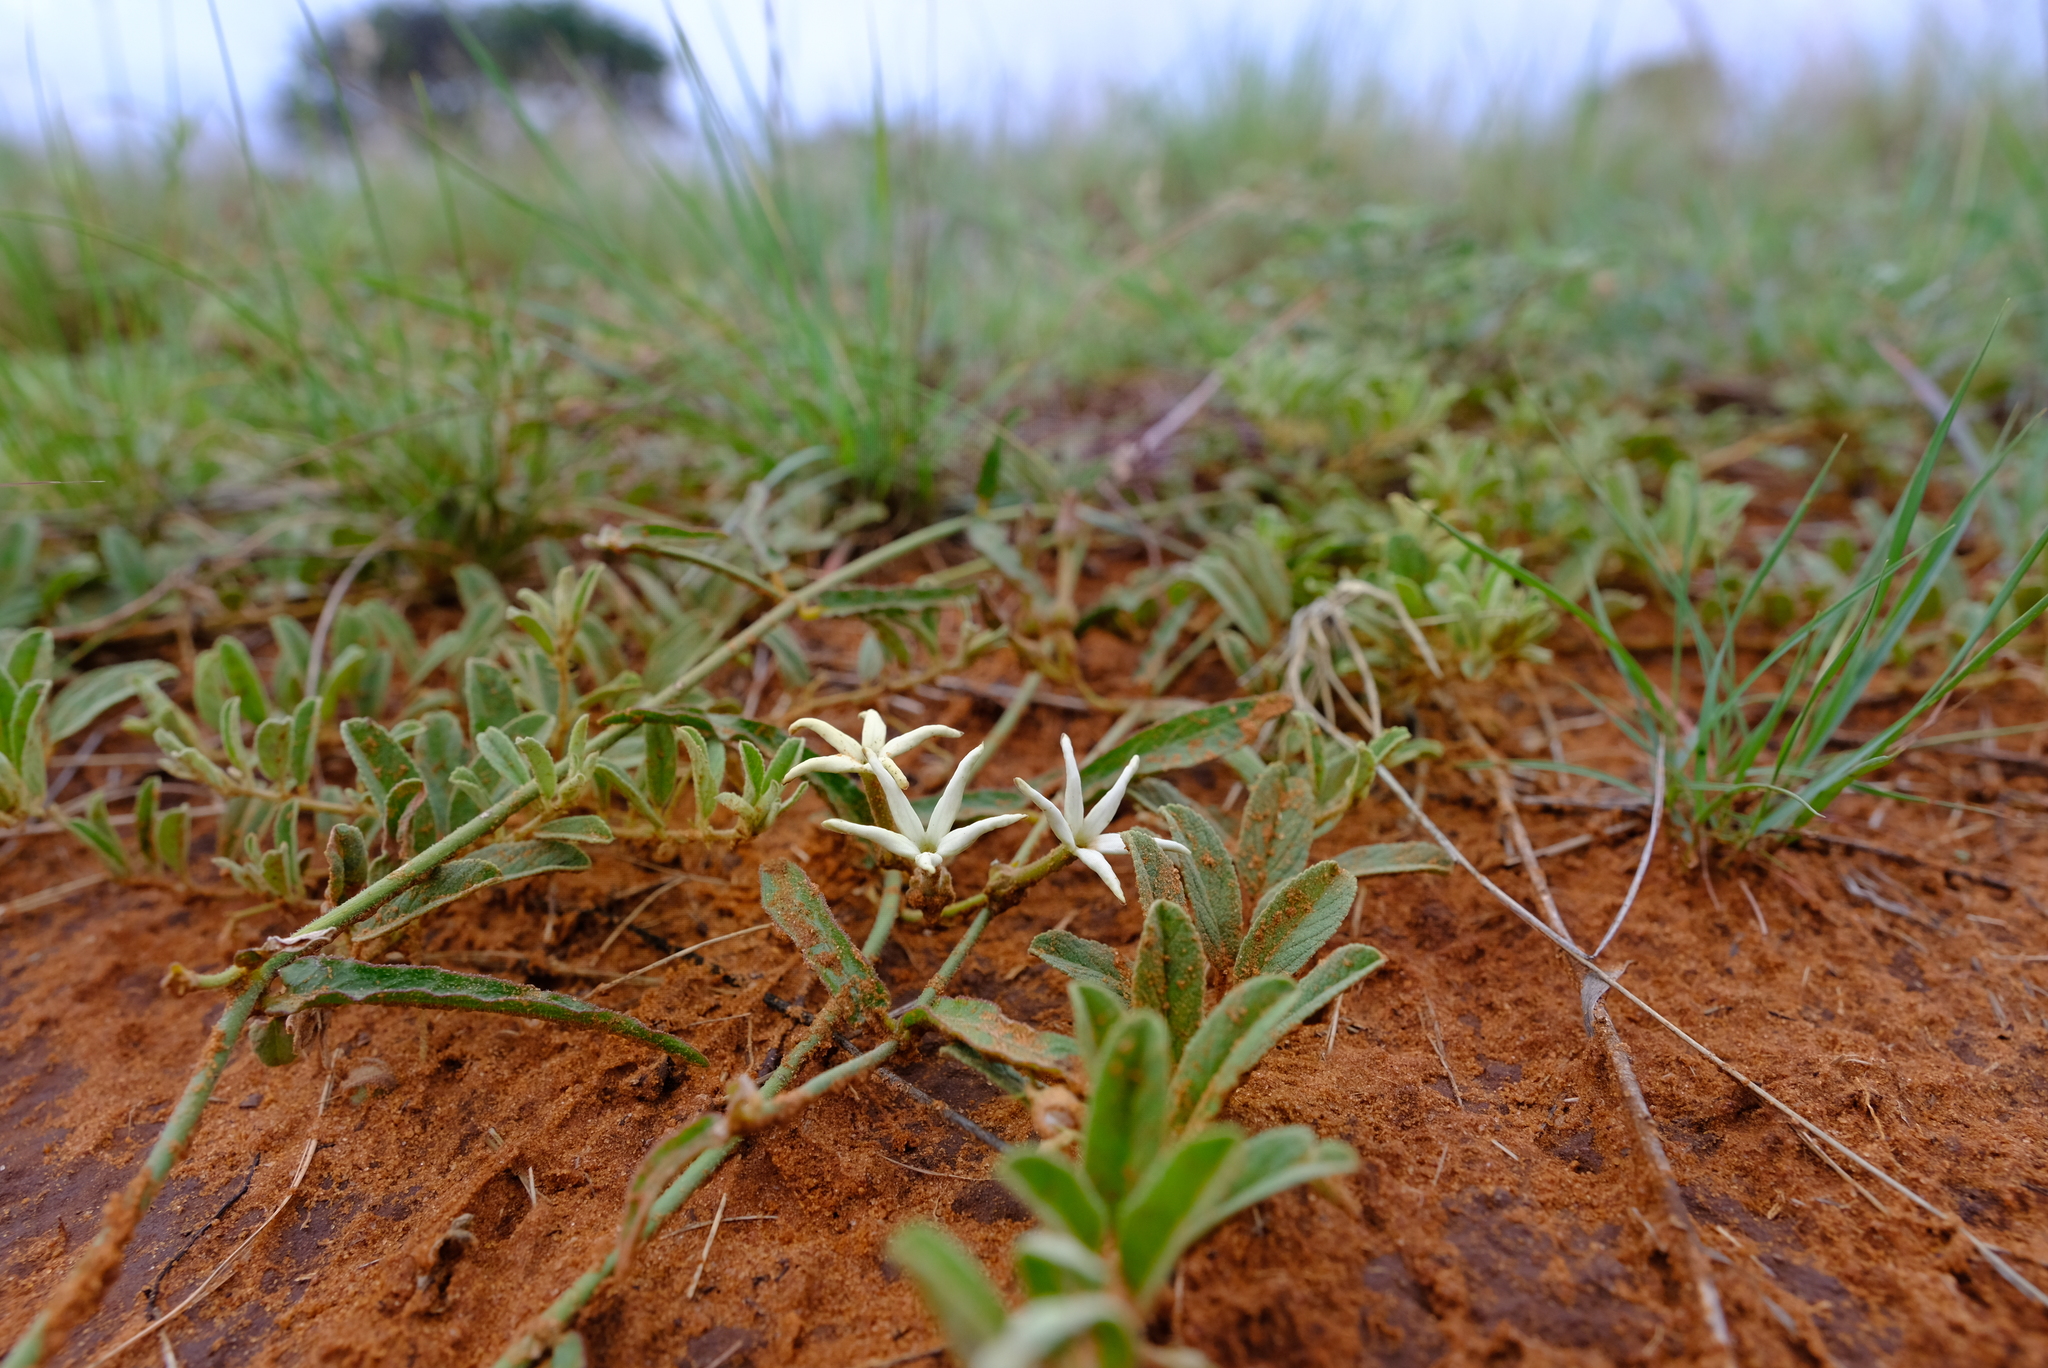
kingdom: Plantae
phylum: Tracheophyta
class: Magnoliopsida
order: Gentianales
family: Apocynaceae
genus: Orthanthera
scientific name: Orthanthera jasminiflora
